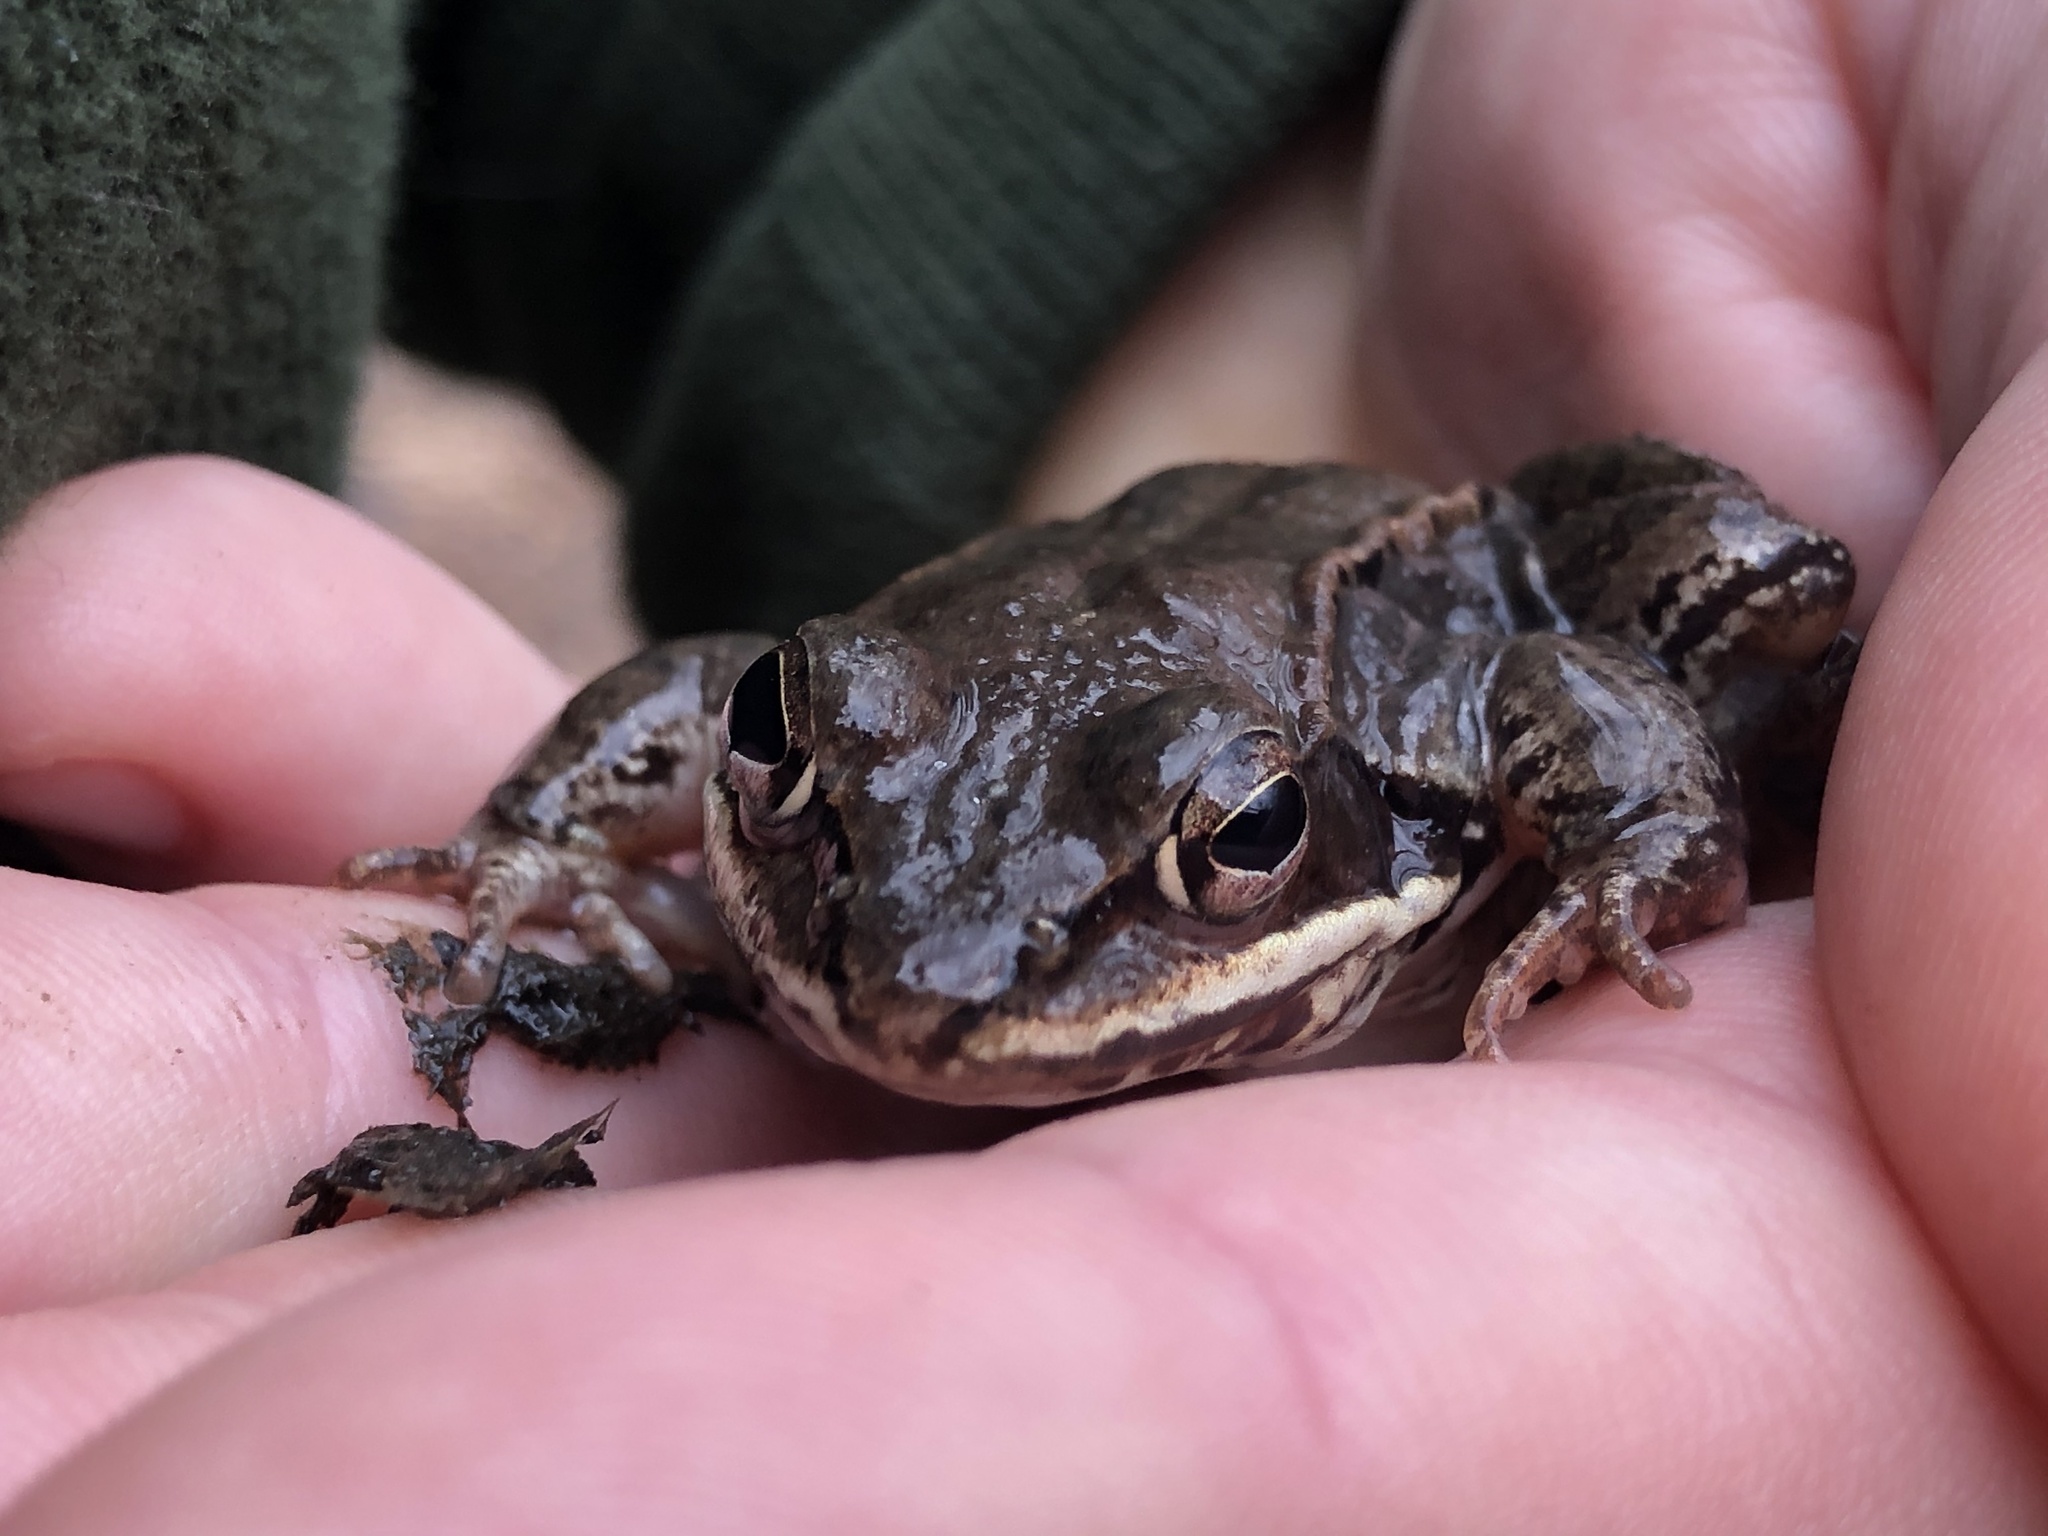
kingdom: Animalia
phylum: Chordata
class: Amphibia
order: Anura
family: Ranidae
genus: Lithobates
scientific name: Lithobates sylvaticus
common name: Wood frog
